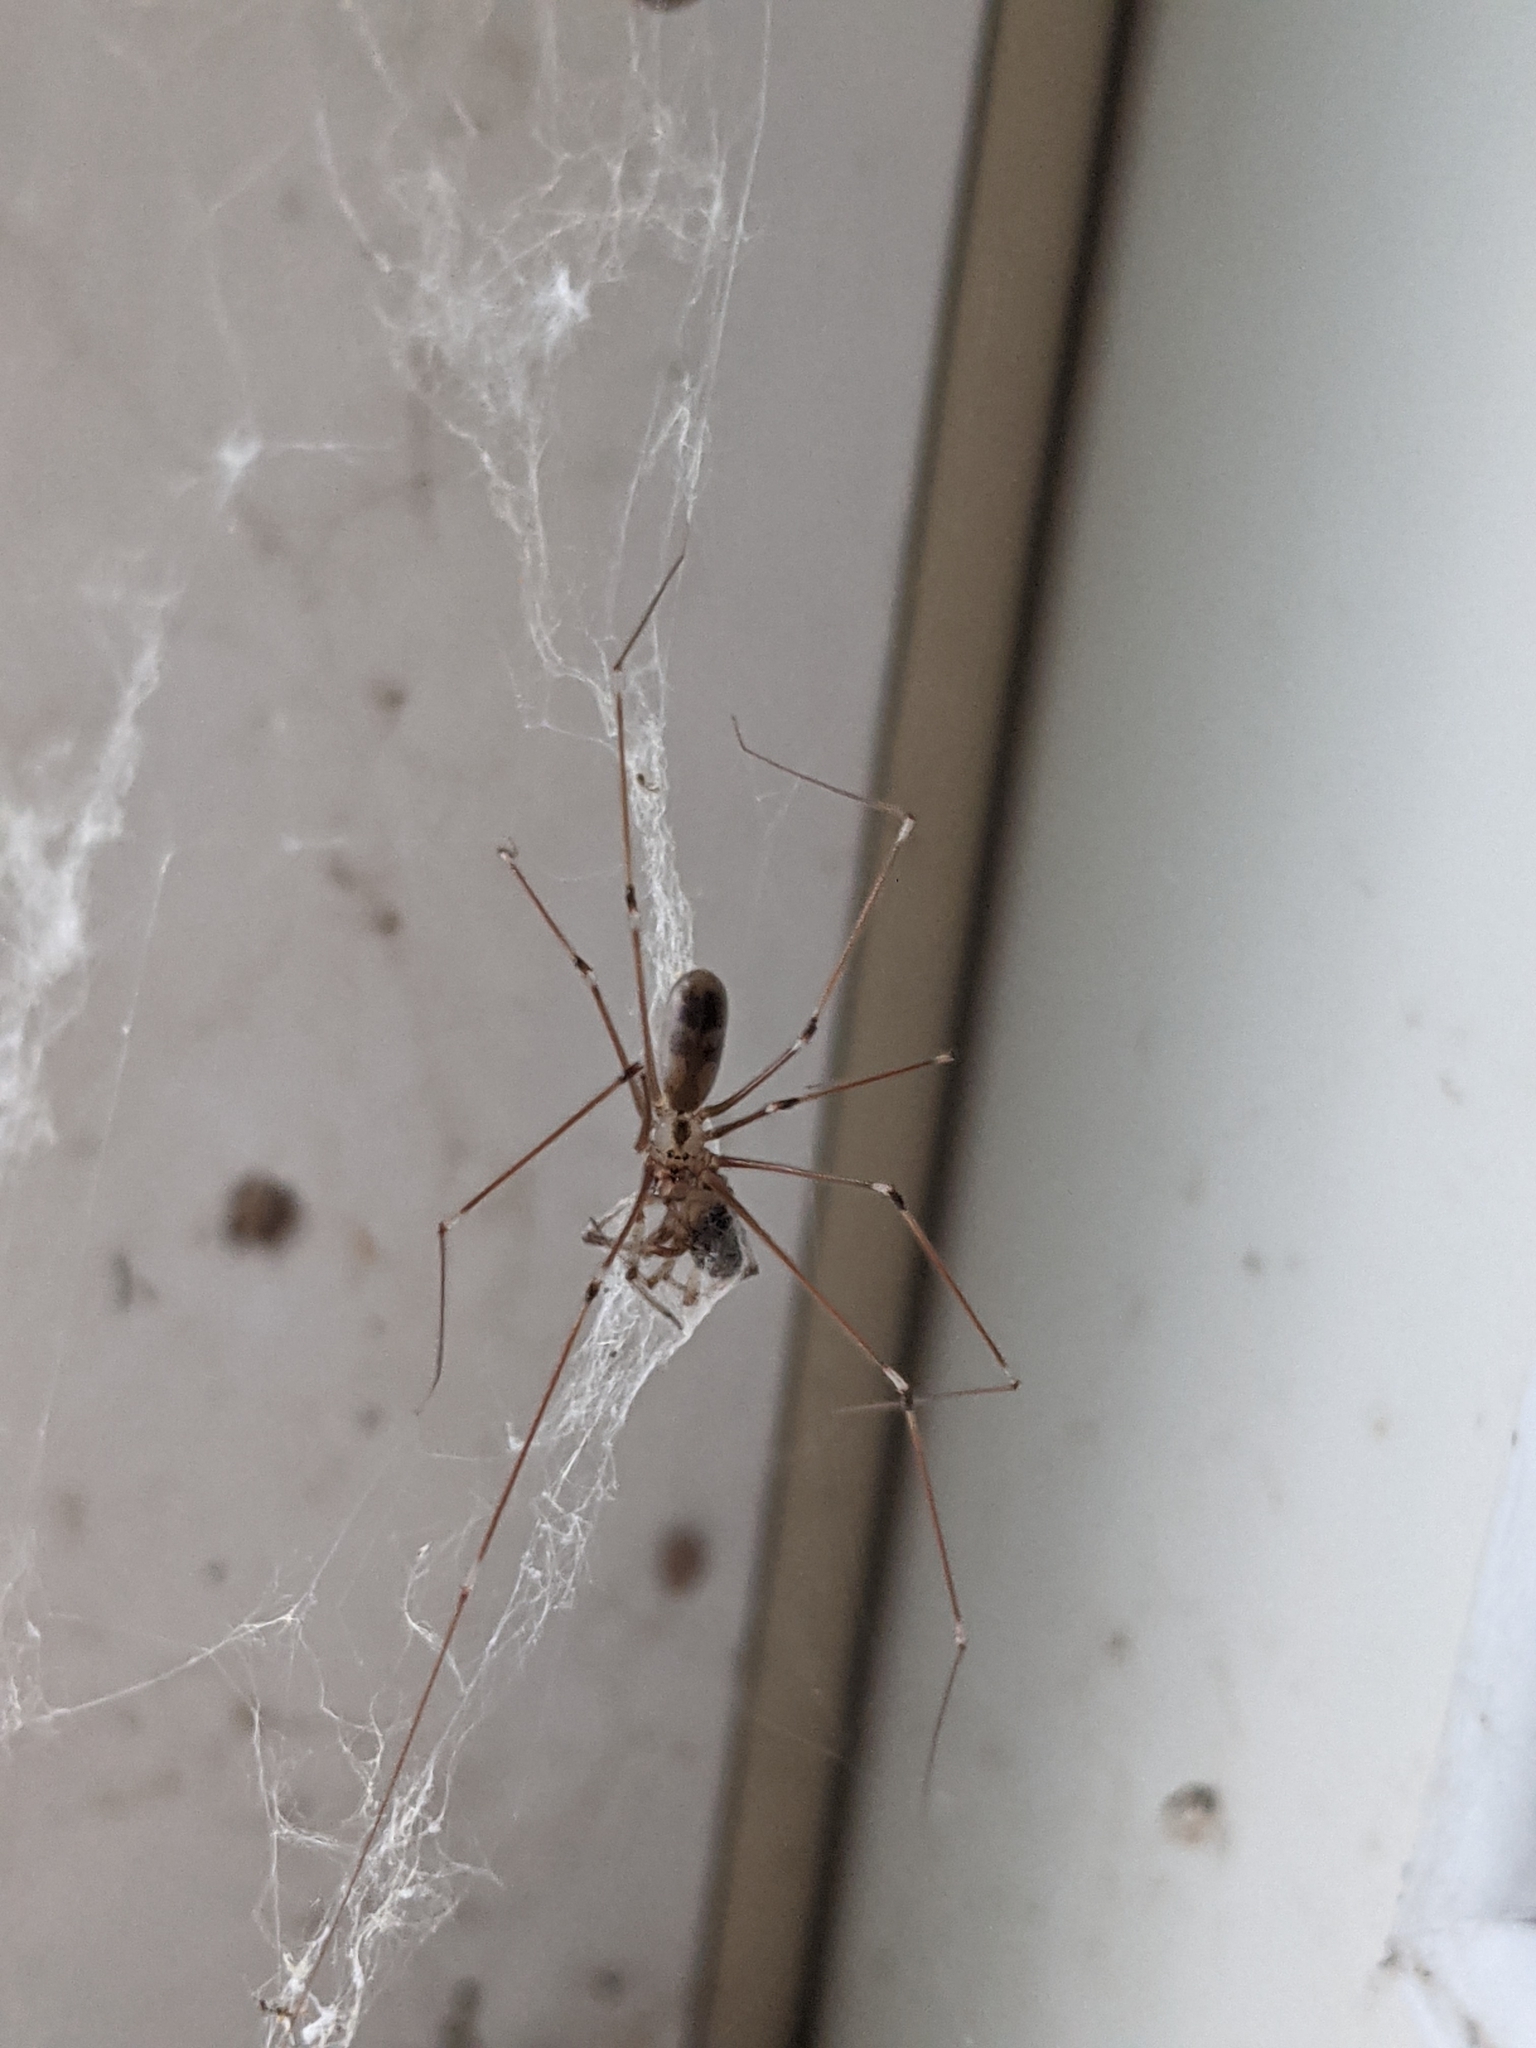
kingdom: Animalia
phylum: Arthropoda
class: Arachnida
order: Araneae
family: Pholcidae
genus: Pholcus
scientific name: Pholcus phalangioides
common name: Longbodied cellar spider
